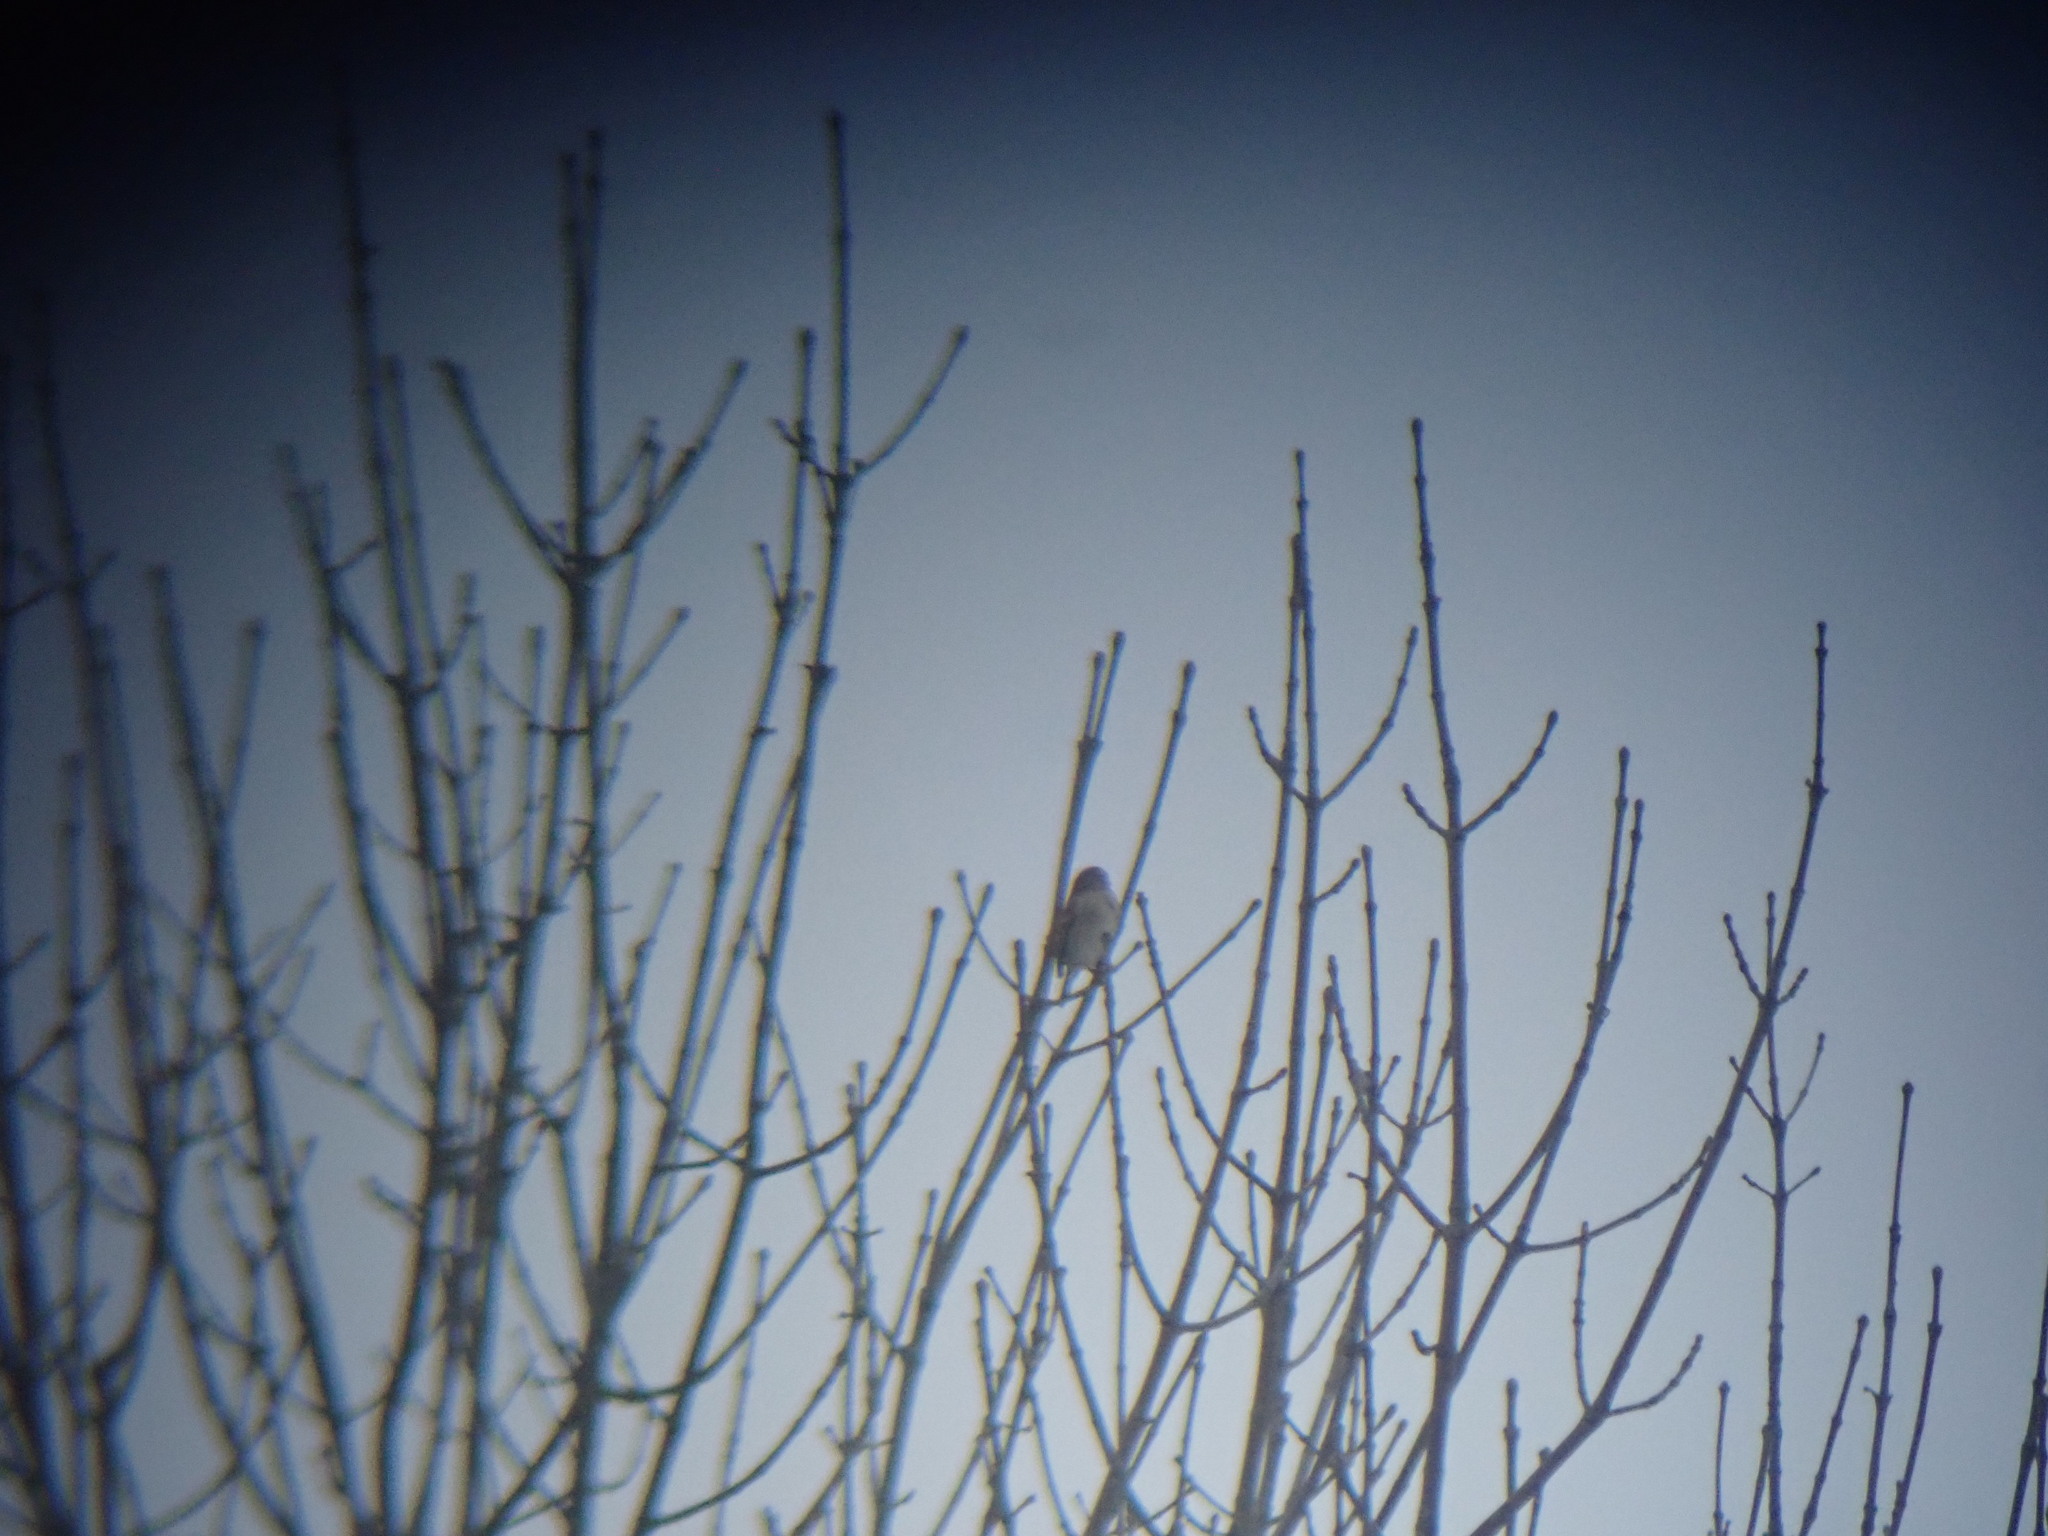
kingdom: Animalia
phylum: Chordata
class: Aves
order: Passeriformes
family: Passeridae
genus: Passer
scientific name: Passer domesticus
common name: House sparrow
